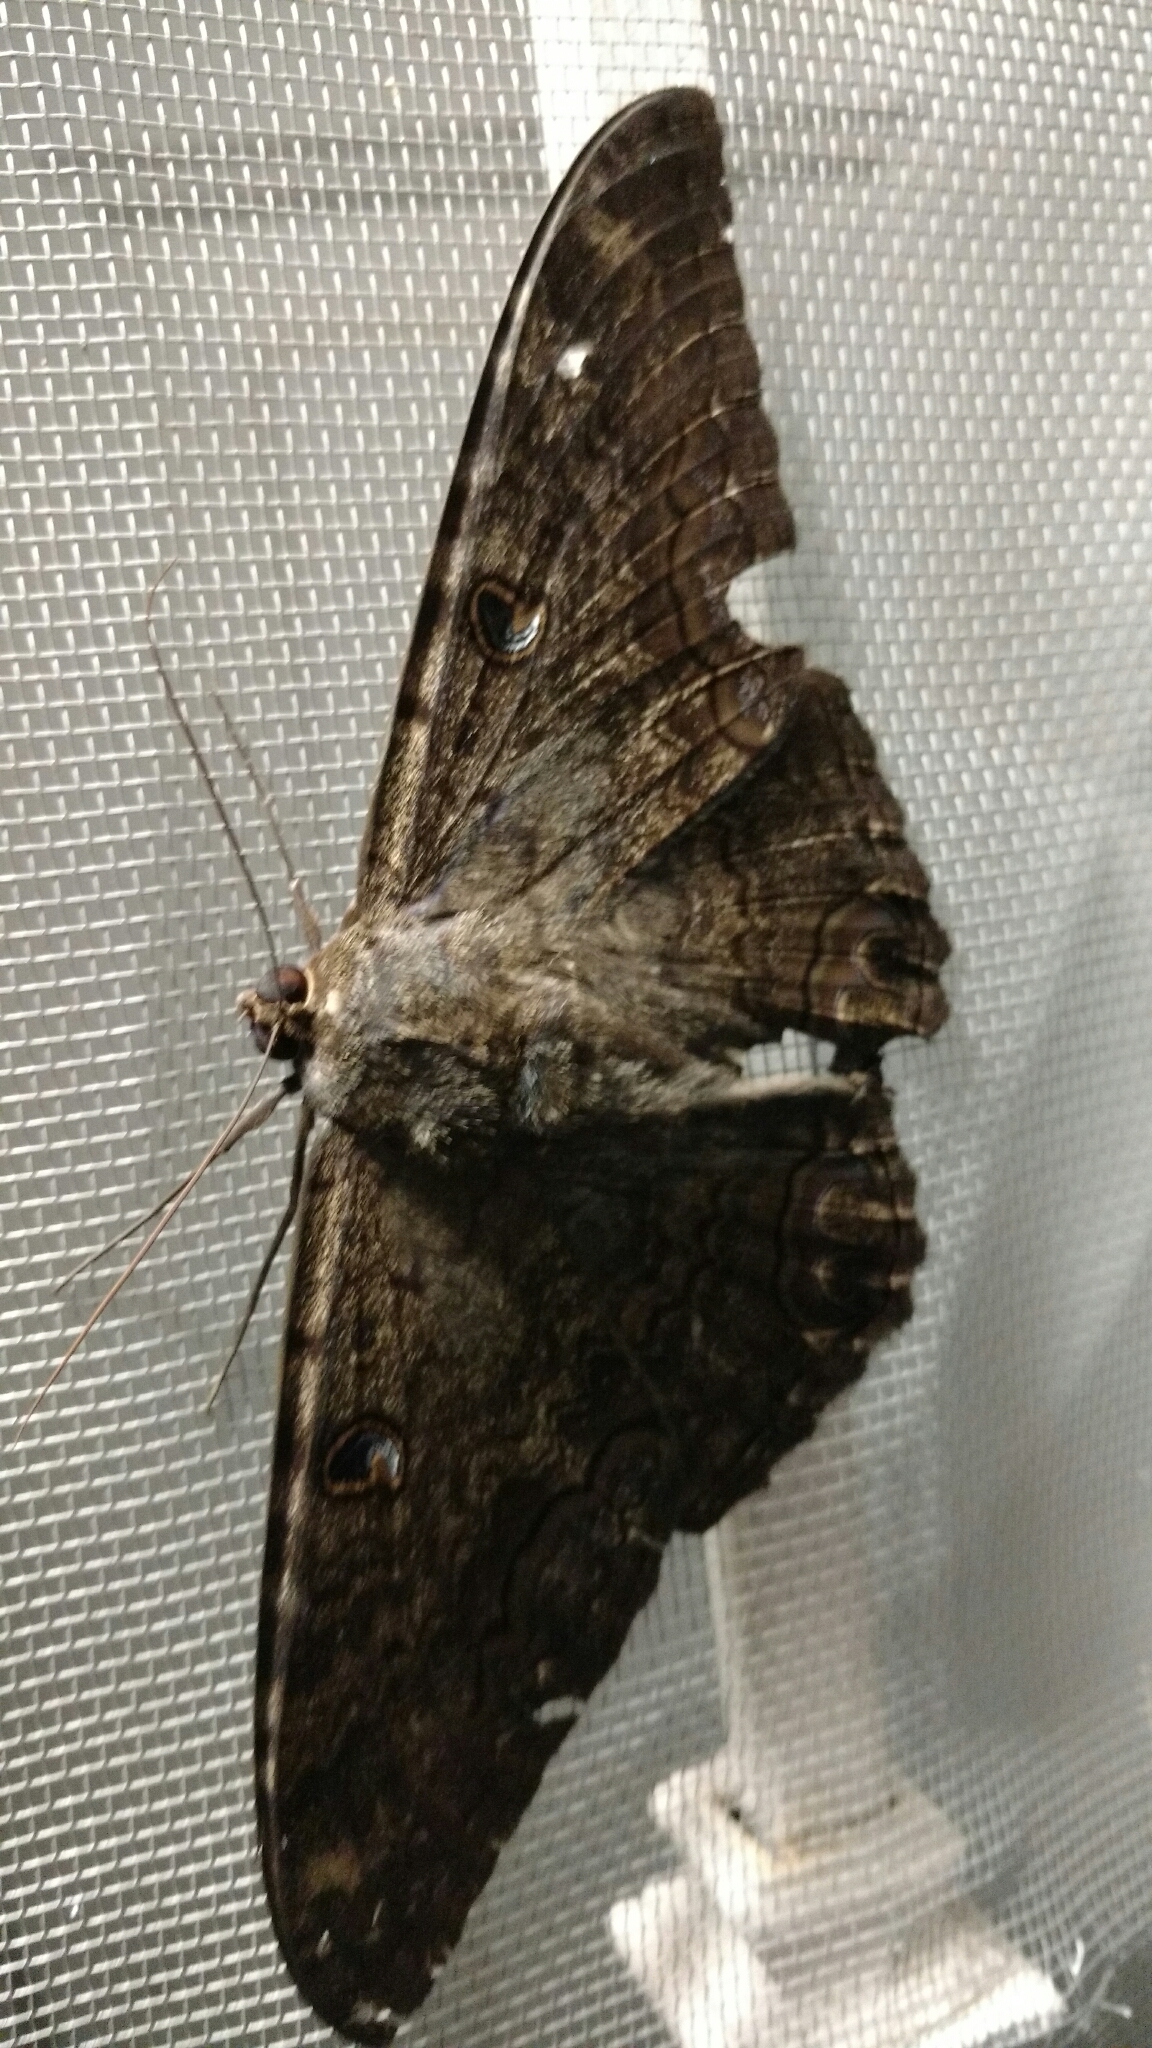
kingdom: Animalia
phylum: Arthropoda
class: Insecta
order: Lepidoptera
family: Erebidae
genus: Ascalapha
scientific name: Ascalapha odorata
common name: Black witch
